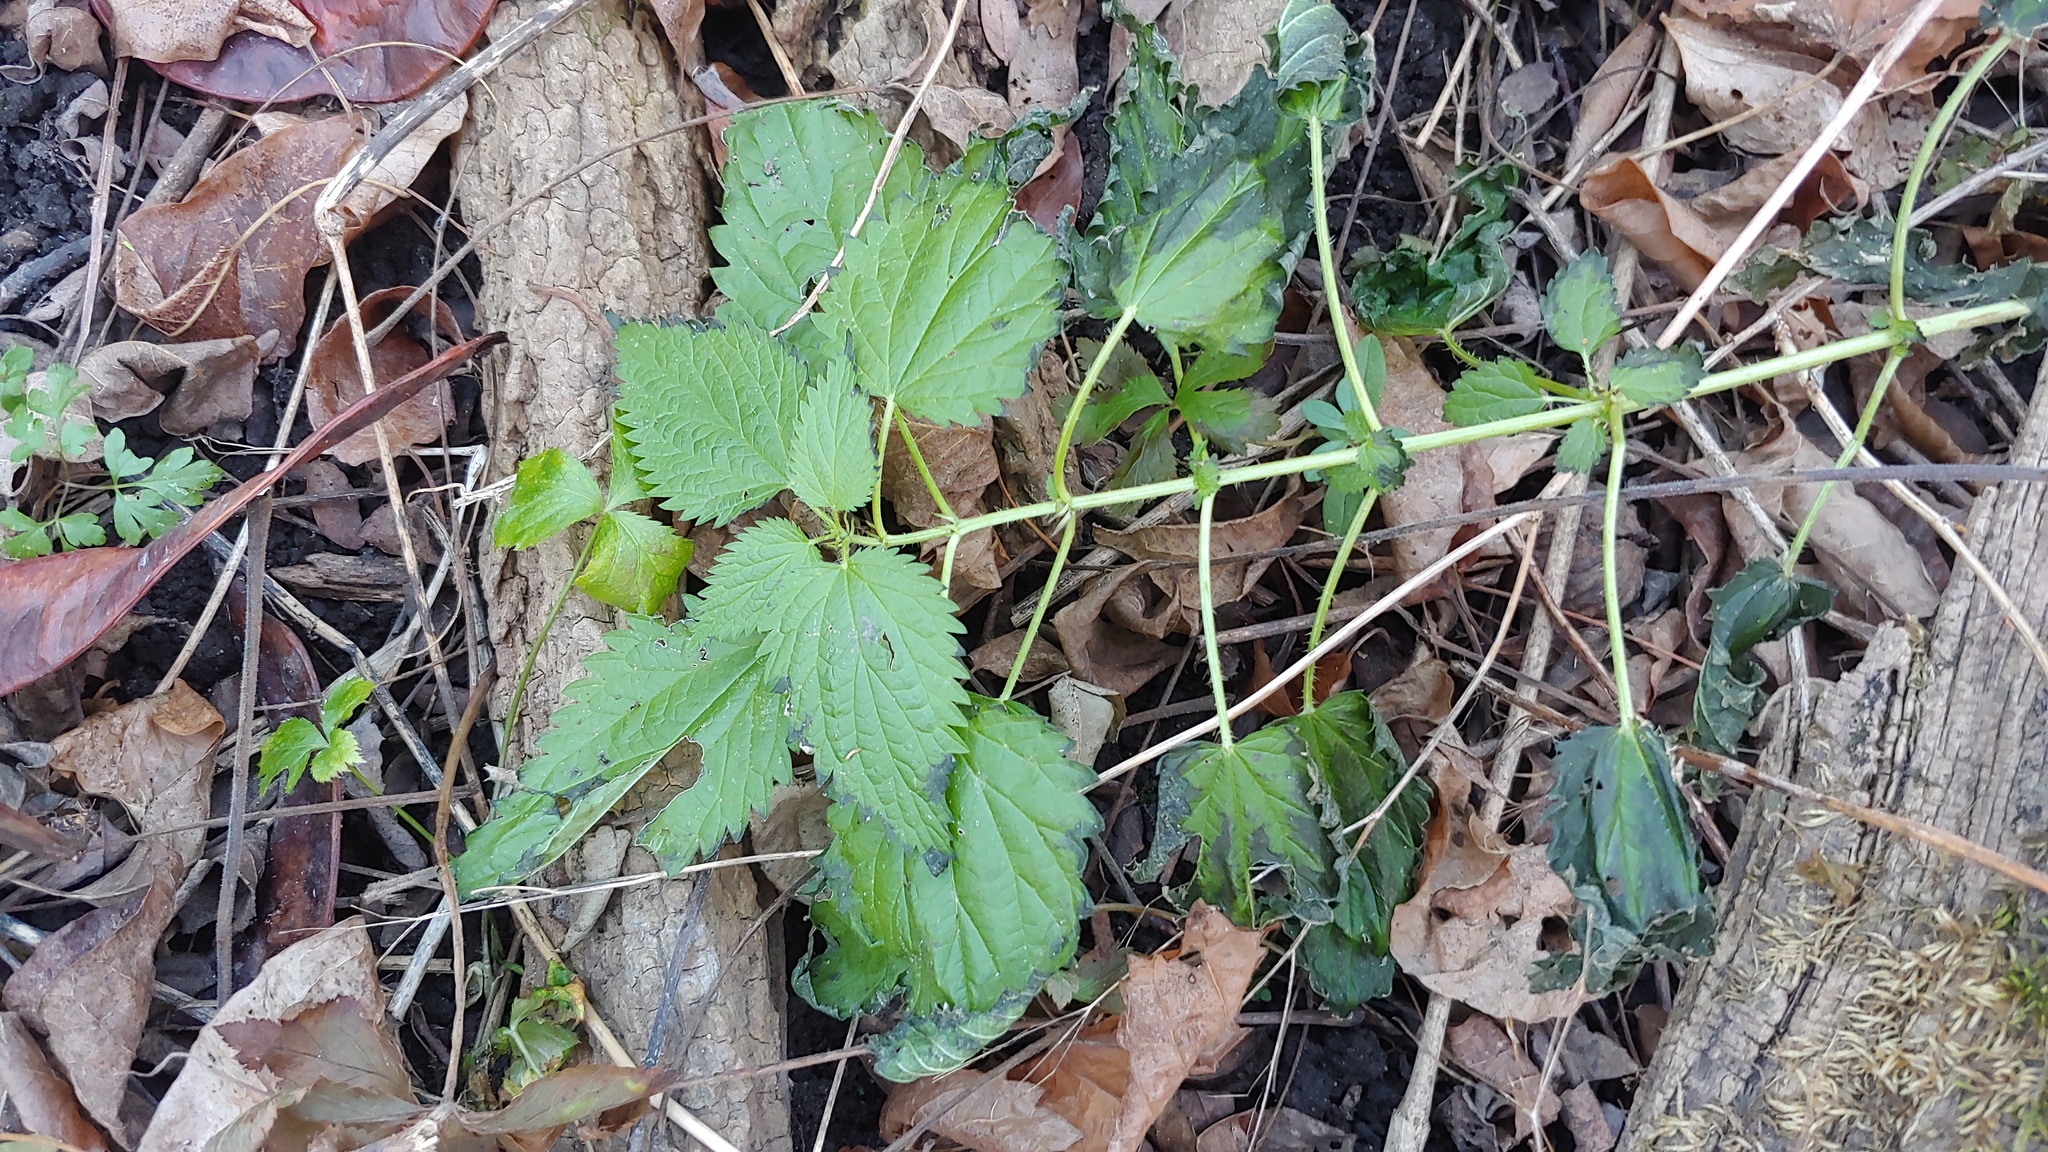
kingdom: Plantae
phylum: Tracheophyta
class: Magnoliopsida
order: Rosales
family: Urticaceae
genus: Urtica
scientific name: Urtica gracilis
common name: Slender stinging nettle
